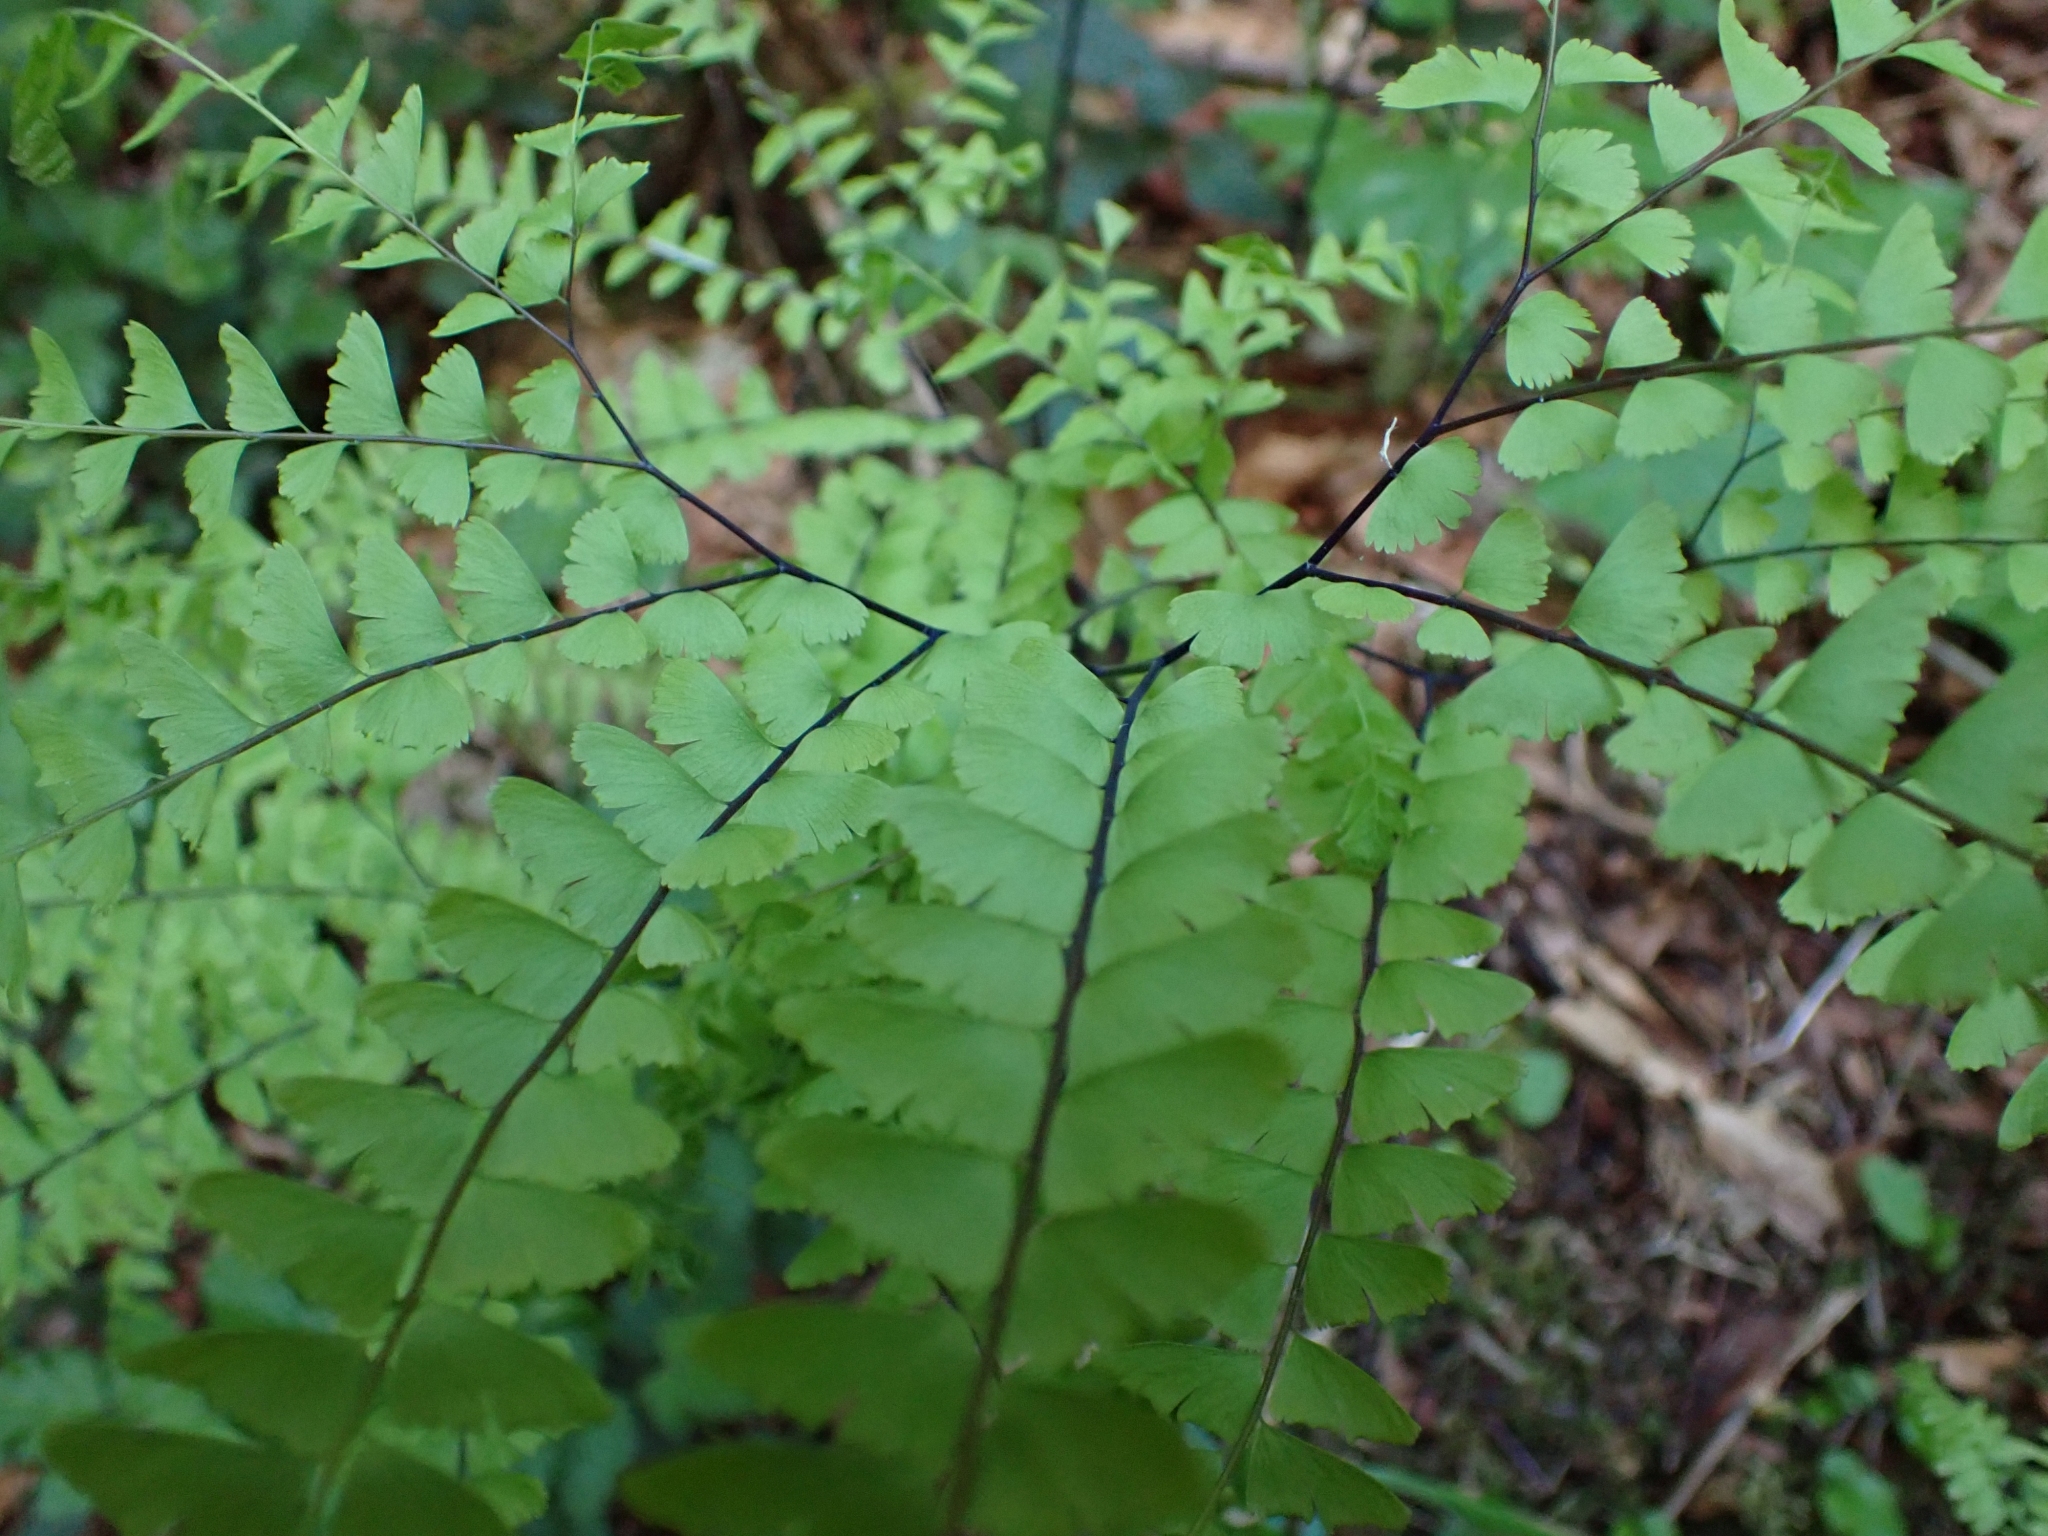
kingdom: Plantae
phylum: Tracheophyta
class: Polypodiopsida
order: Polypodiales
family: Pteridaceae
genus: Adiantum
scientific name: Adiantum aleuticum
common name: Aleutian maidenhair fern
